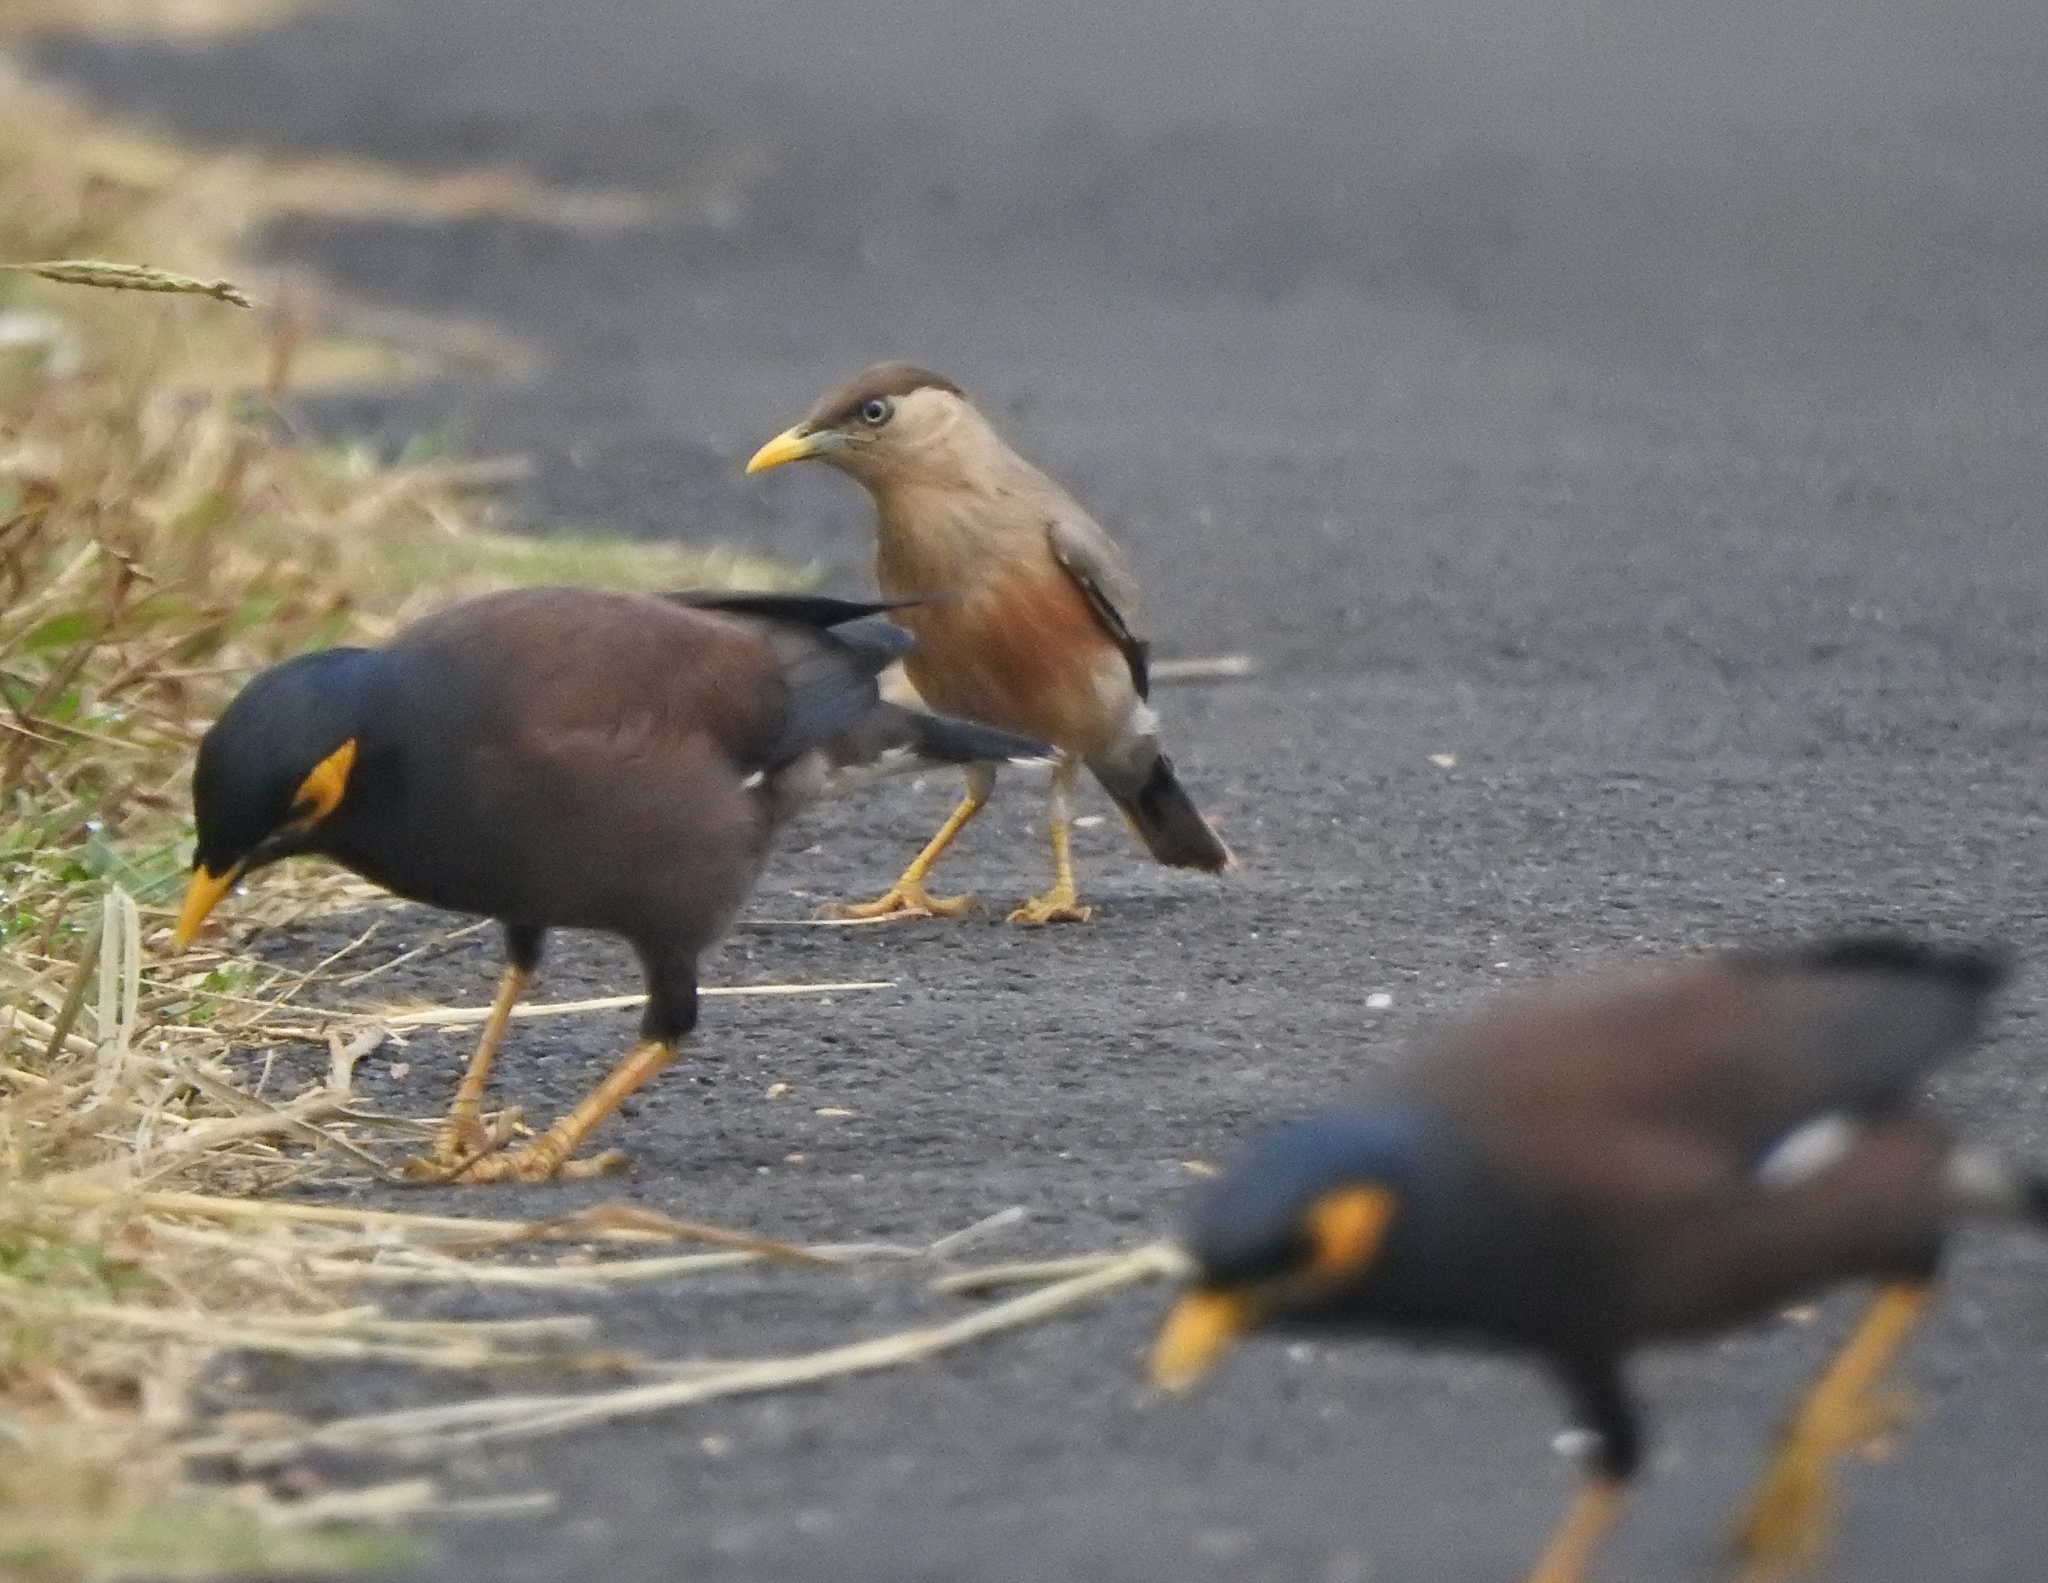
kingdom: Animalia
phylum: Chordata
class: Aves
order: Passeriformes
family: Sturnidae
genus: Acridotheres
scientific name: Acridotheres tristis
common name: Common myna
